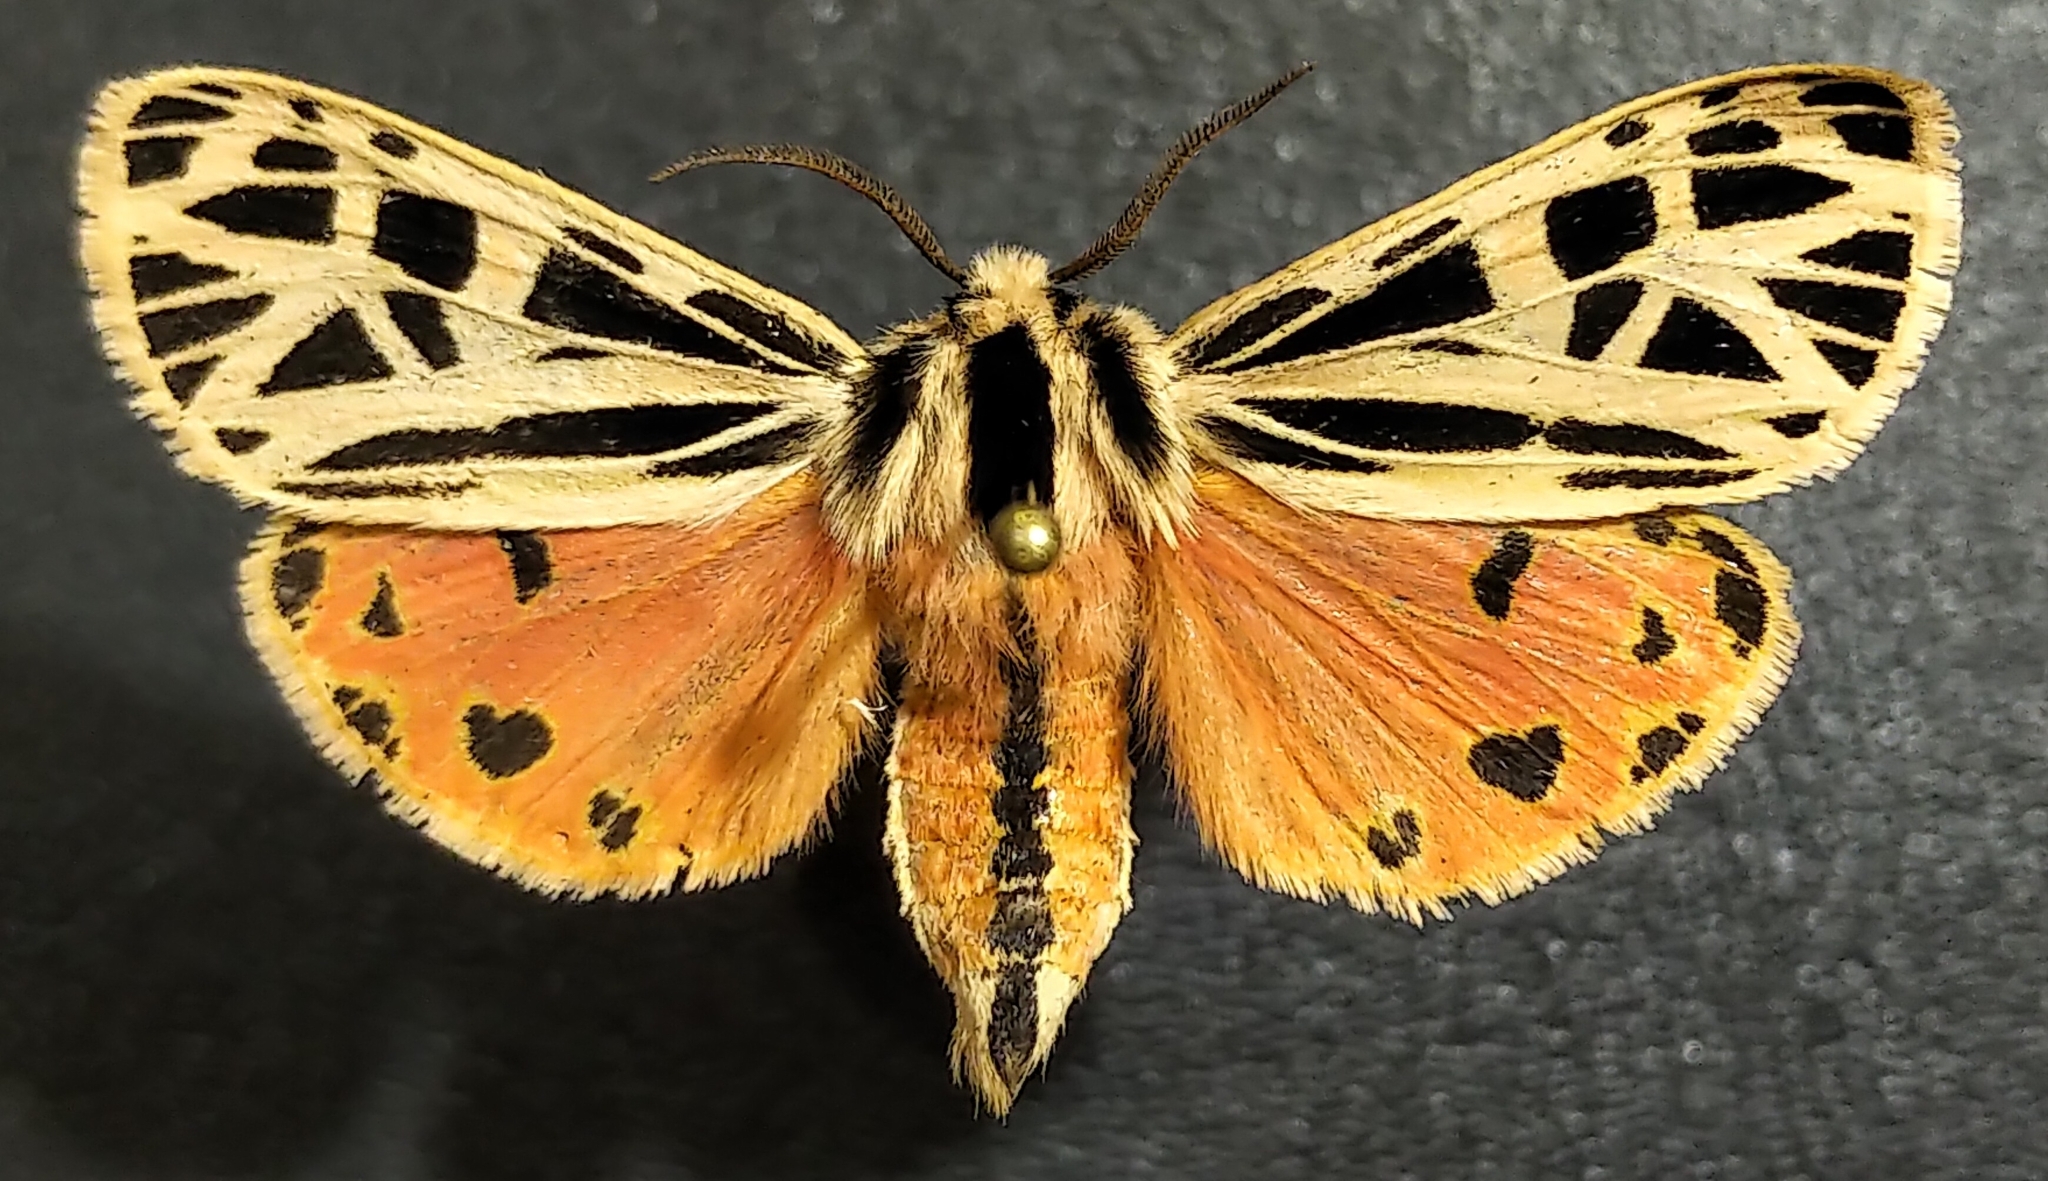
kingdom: Animalia
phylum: Arthropoda
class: Insecta
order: Lepidoptera
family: Erebidae
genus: Grammia
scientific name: Grammia parthenice
